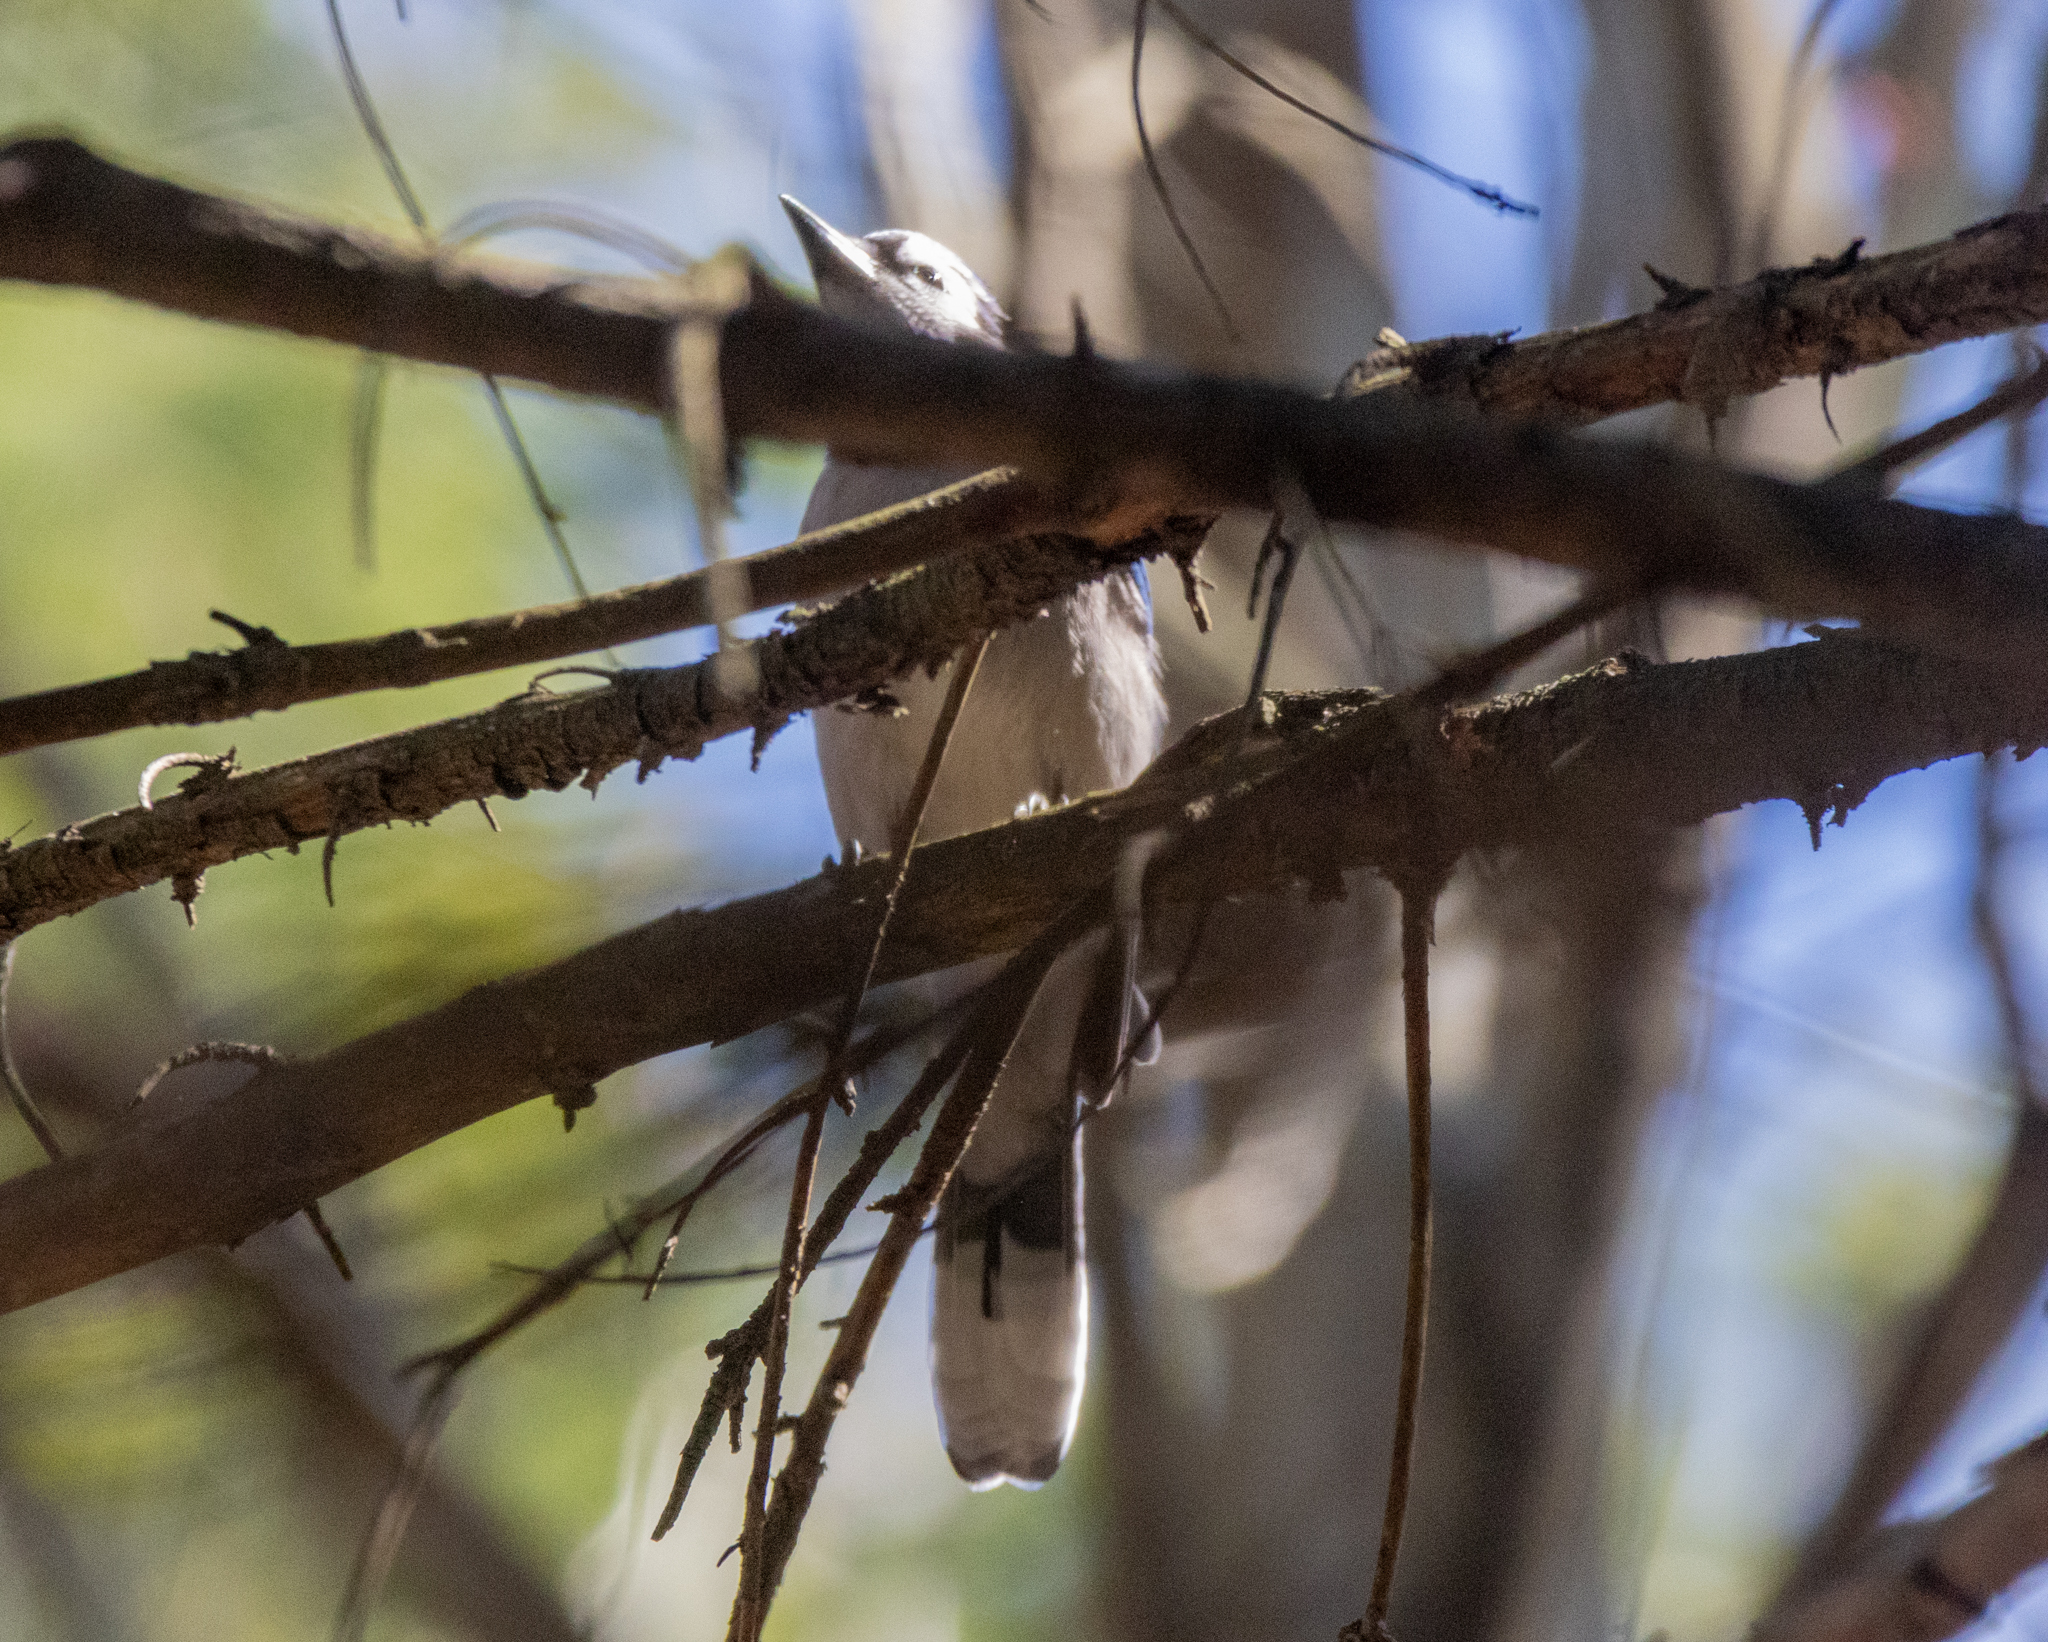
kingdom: Animalia
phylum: Chordata
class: Aves
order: Passeriformes
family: Corvidae
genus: Cyanocitta
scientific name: Cyanocitta cristata
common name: Blue jay
